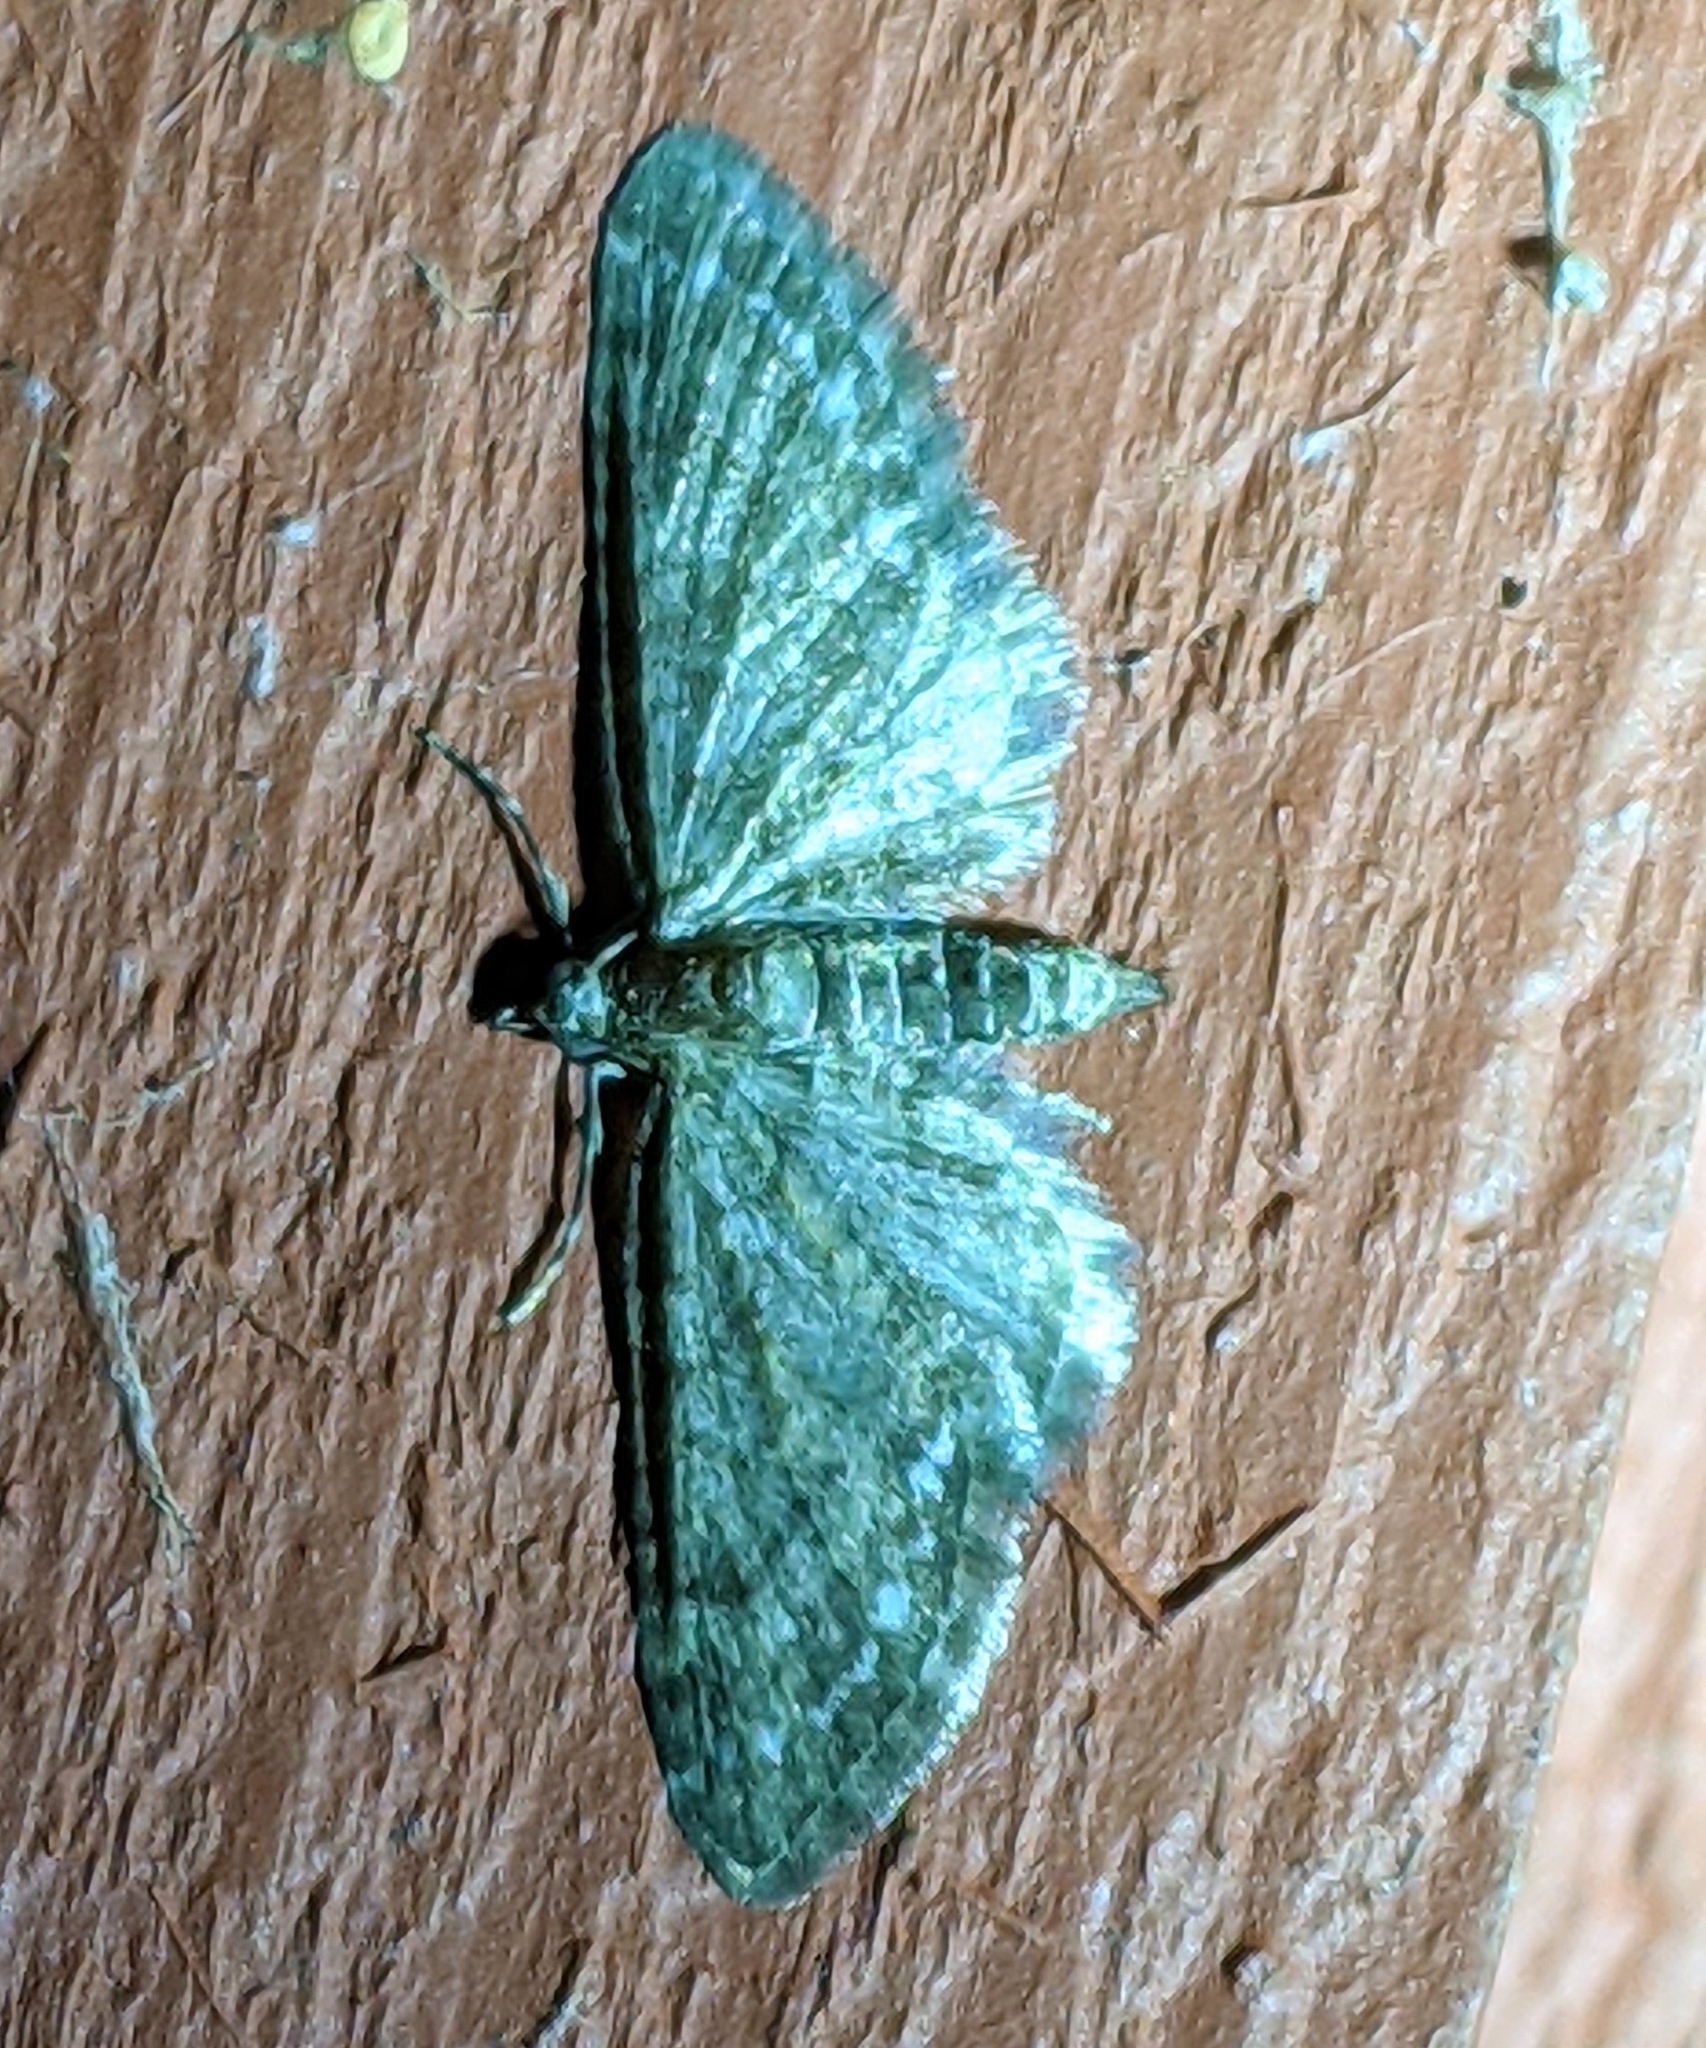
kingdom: Animalia
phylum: Arthropoda
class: Insecta
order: Lepidoptera
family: Geometridae
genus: Pasiphila
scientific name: Pasiphila rectangulata
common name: Green pug
